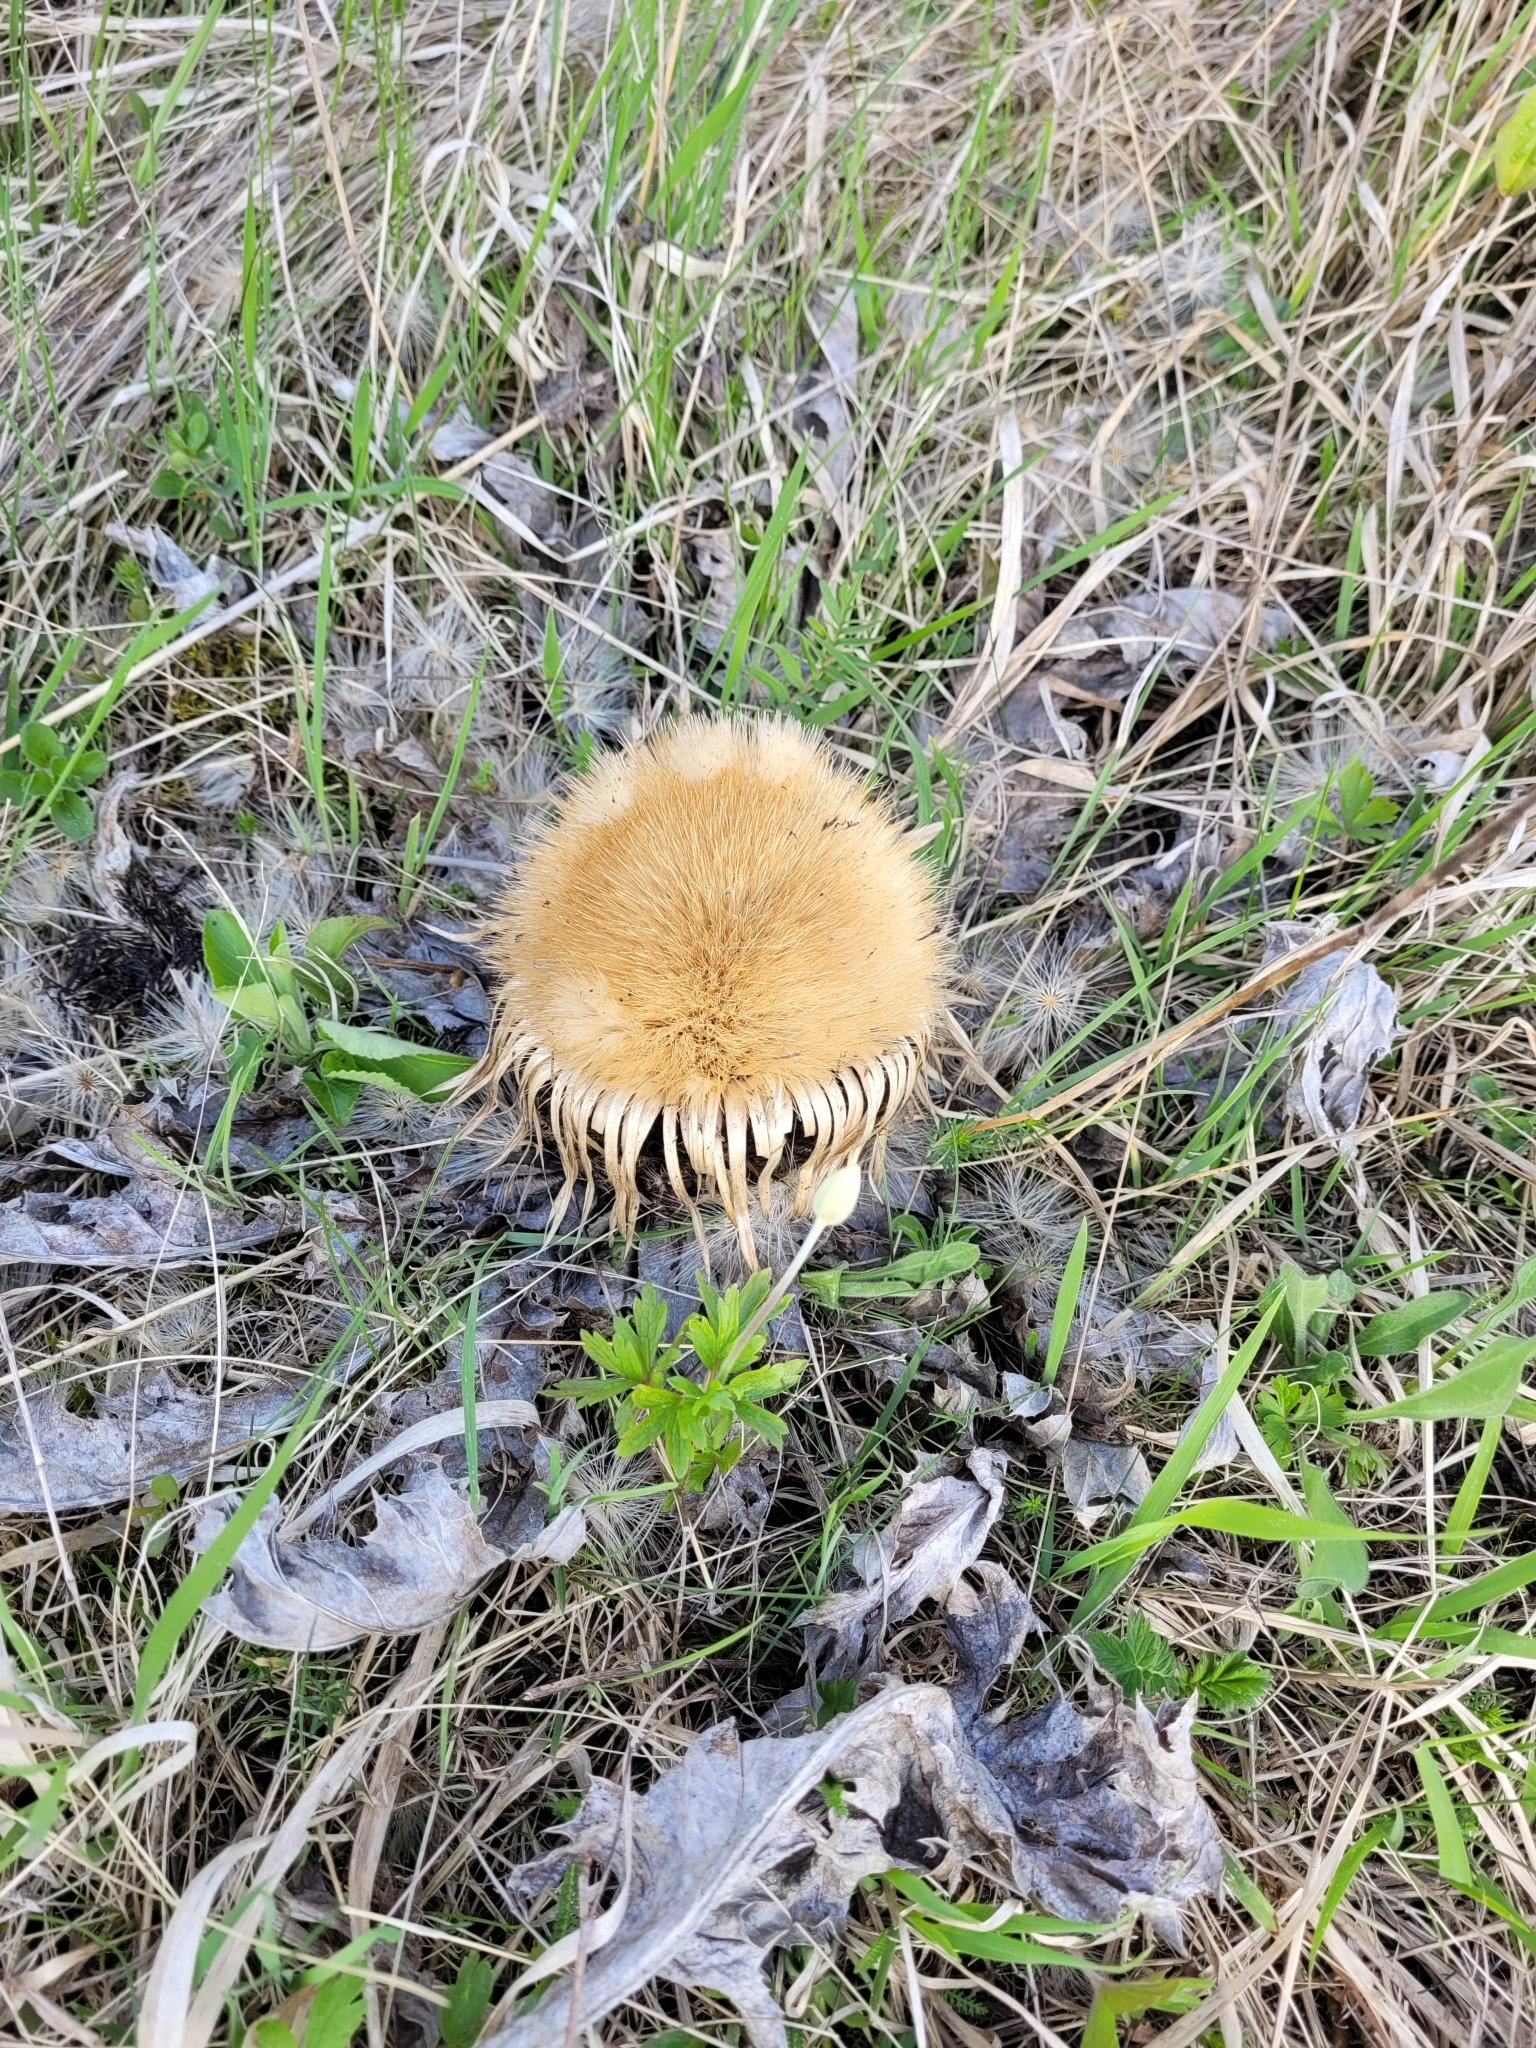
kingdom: Plantae
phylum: Tracheophyta
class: Magnoliopsida
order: Asterales
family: Asteraceae
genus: Carlina
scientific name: Carlina acanthifolia
